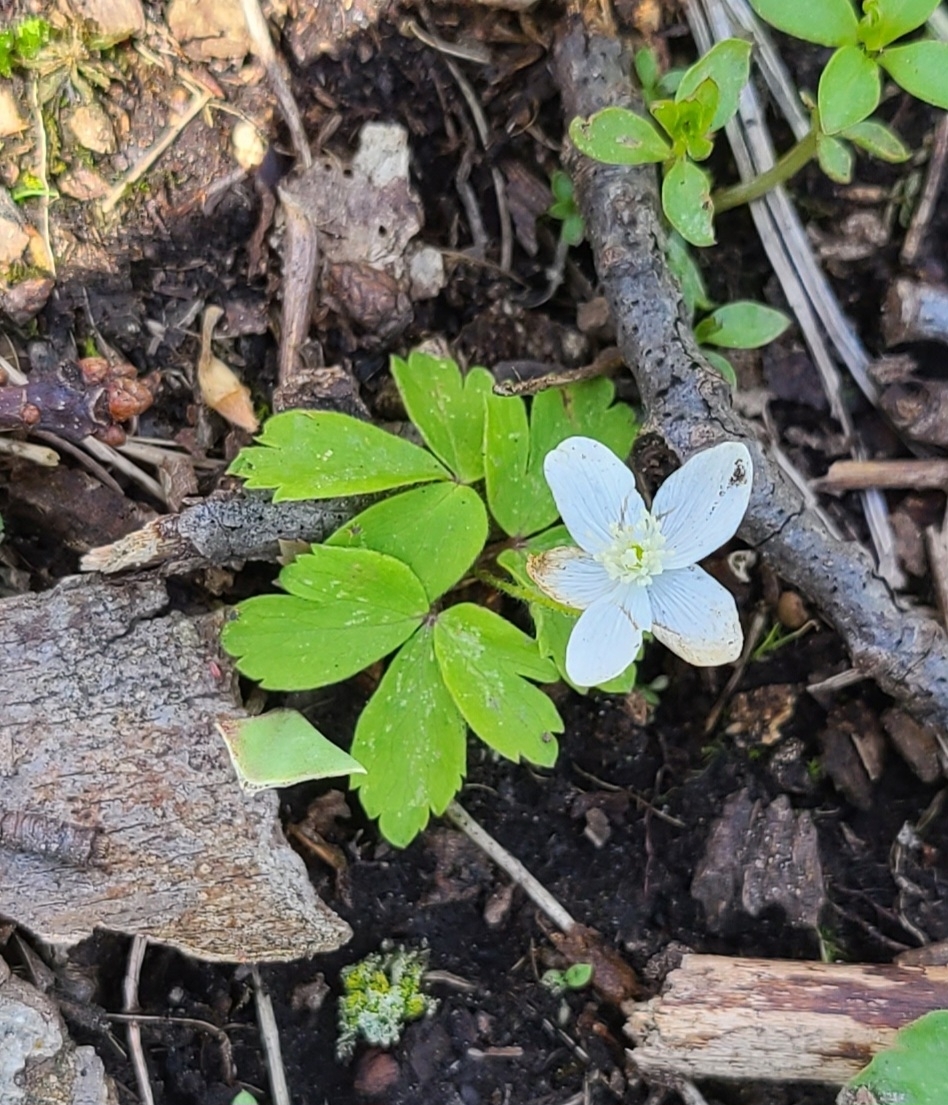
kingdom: Plantae
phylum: Tracheophyta
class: Magnoliopsida
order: Ranunculales
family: Ranunculaceae
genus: Anemone
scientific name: Anemone quinquefolia
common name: Wood anemone
